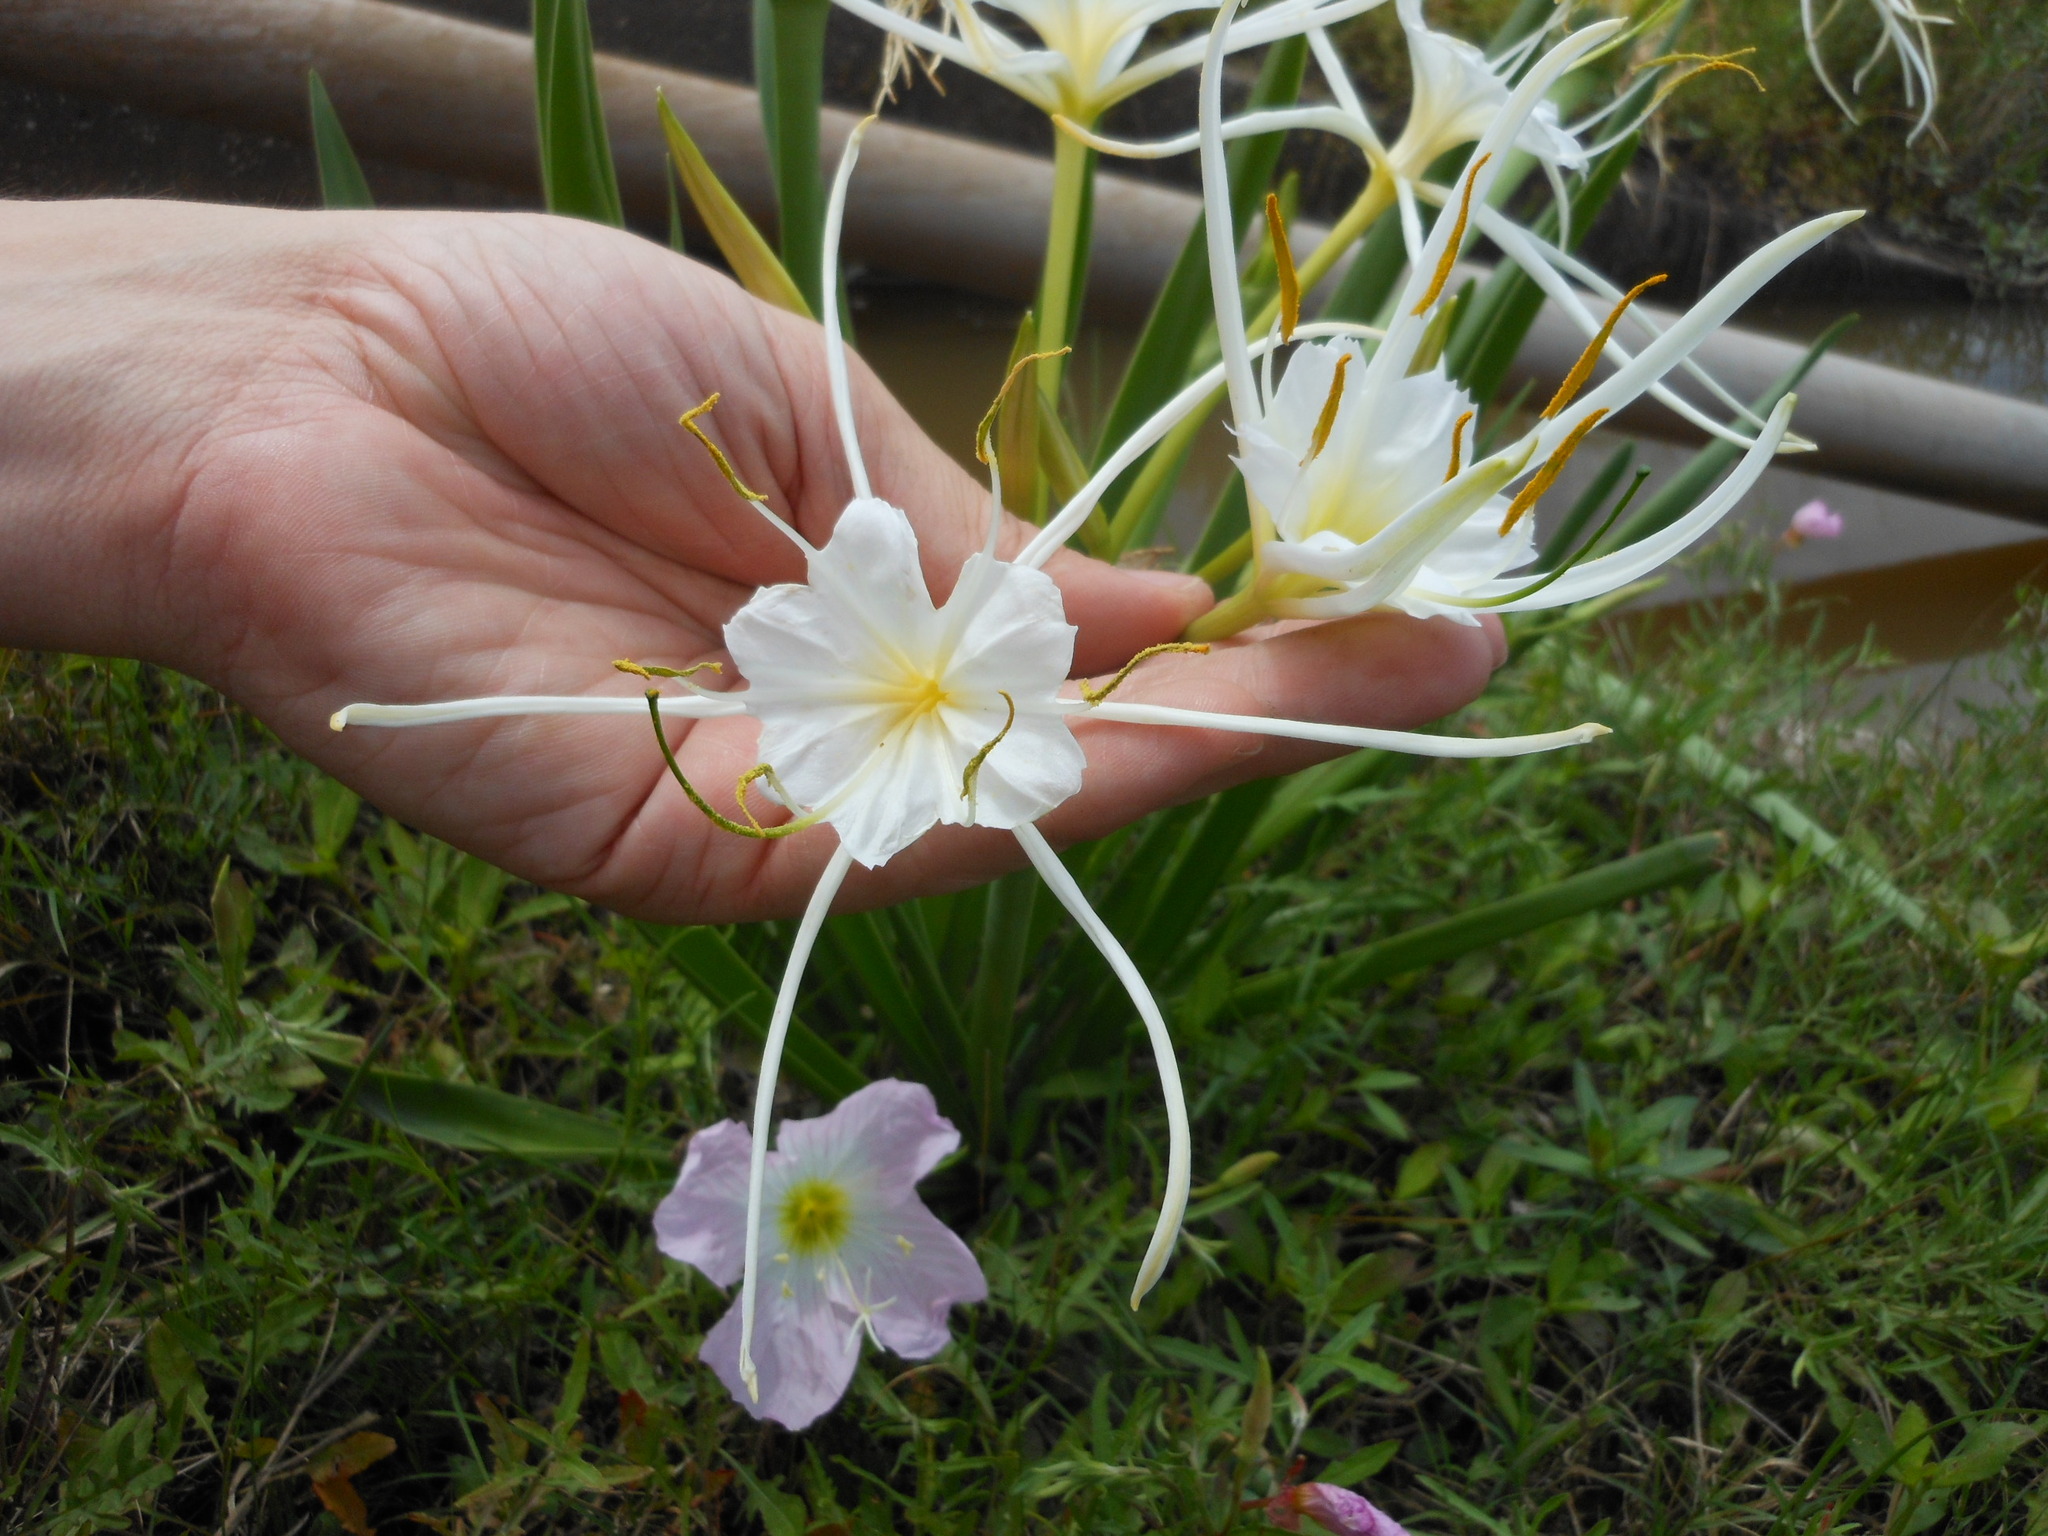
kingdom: Plantae
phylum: Tracheophyta
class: Liliopsida
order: Asparagales
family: Amaryllidaceae
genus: Hymenocallis
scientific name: Hymenocallis liriosme
